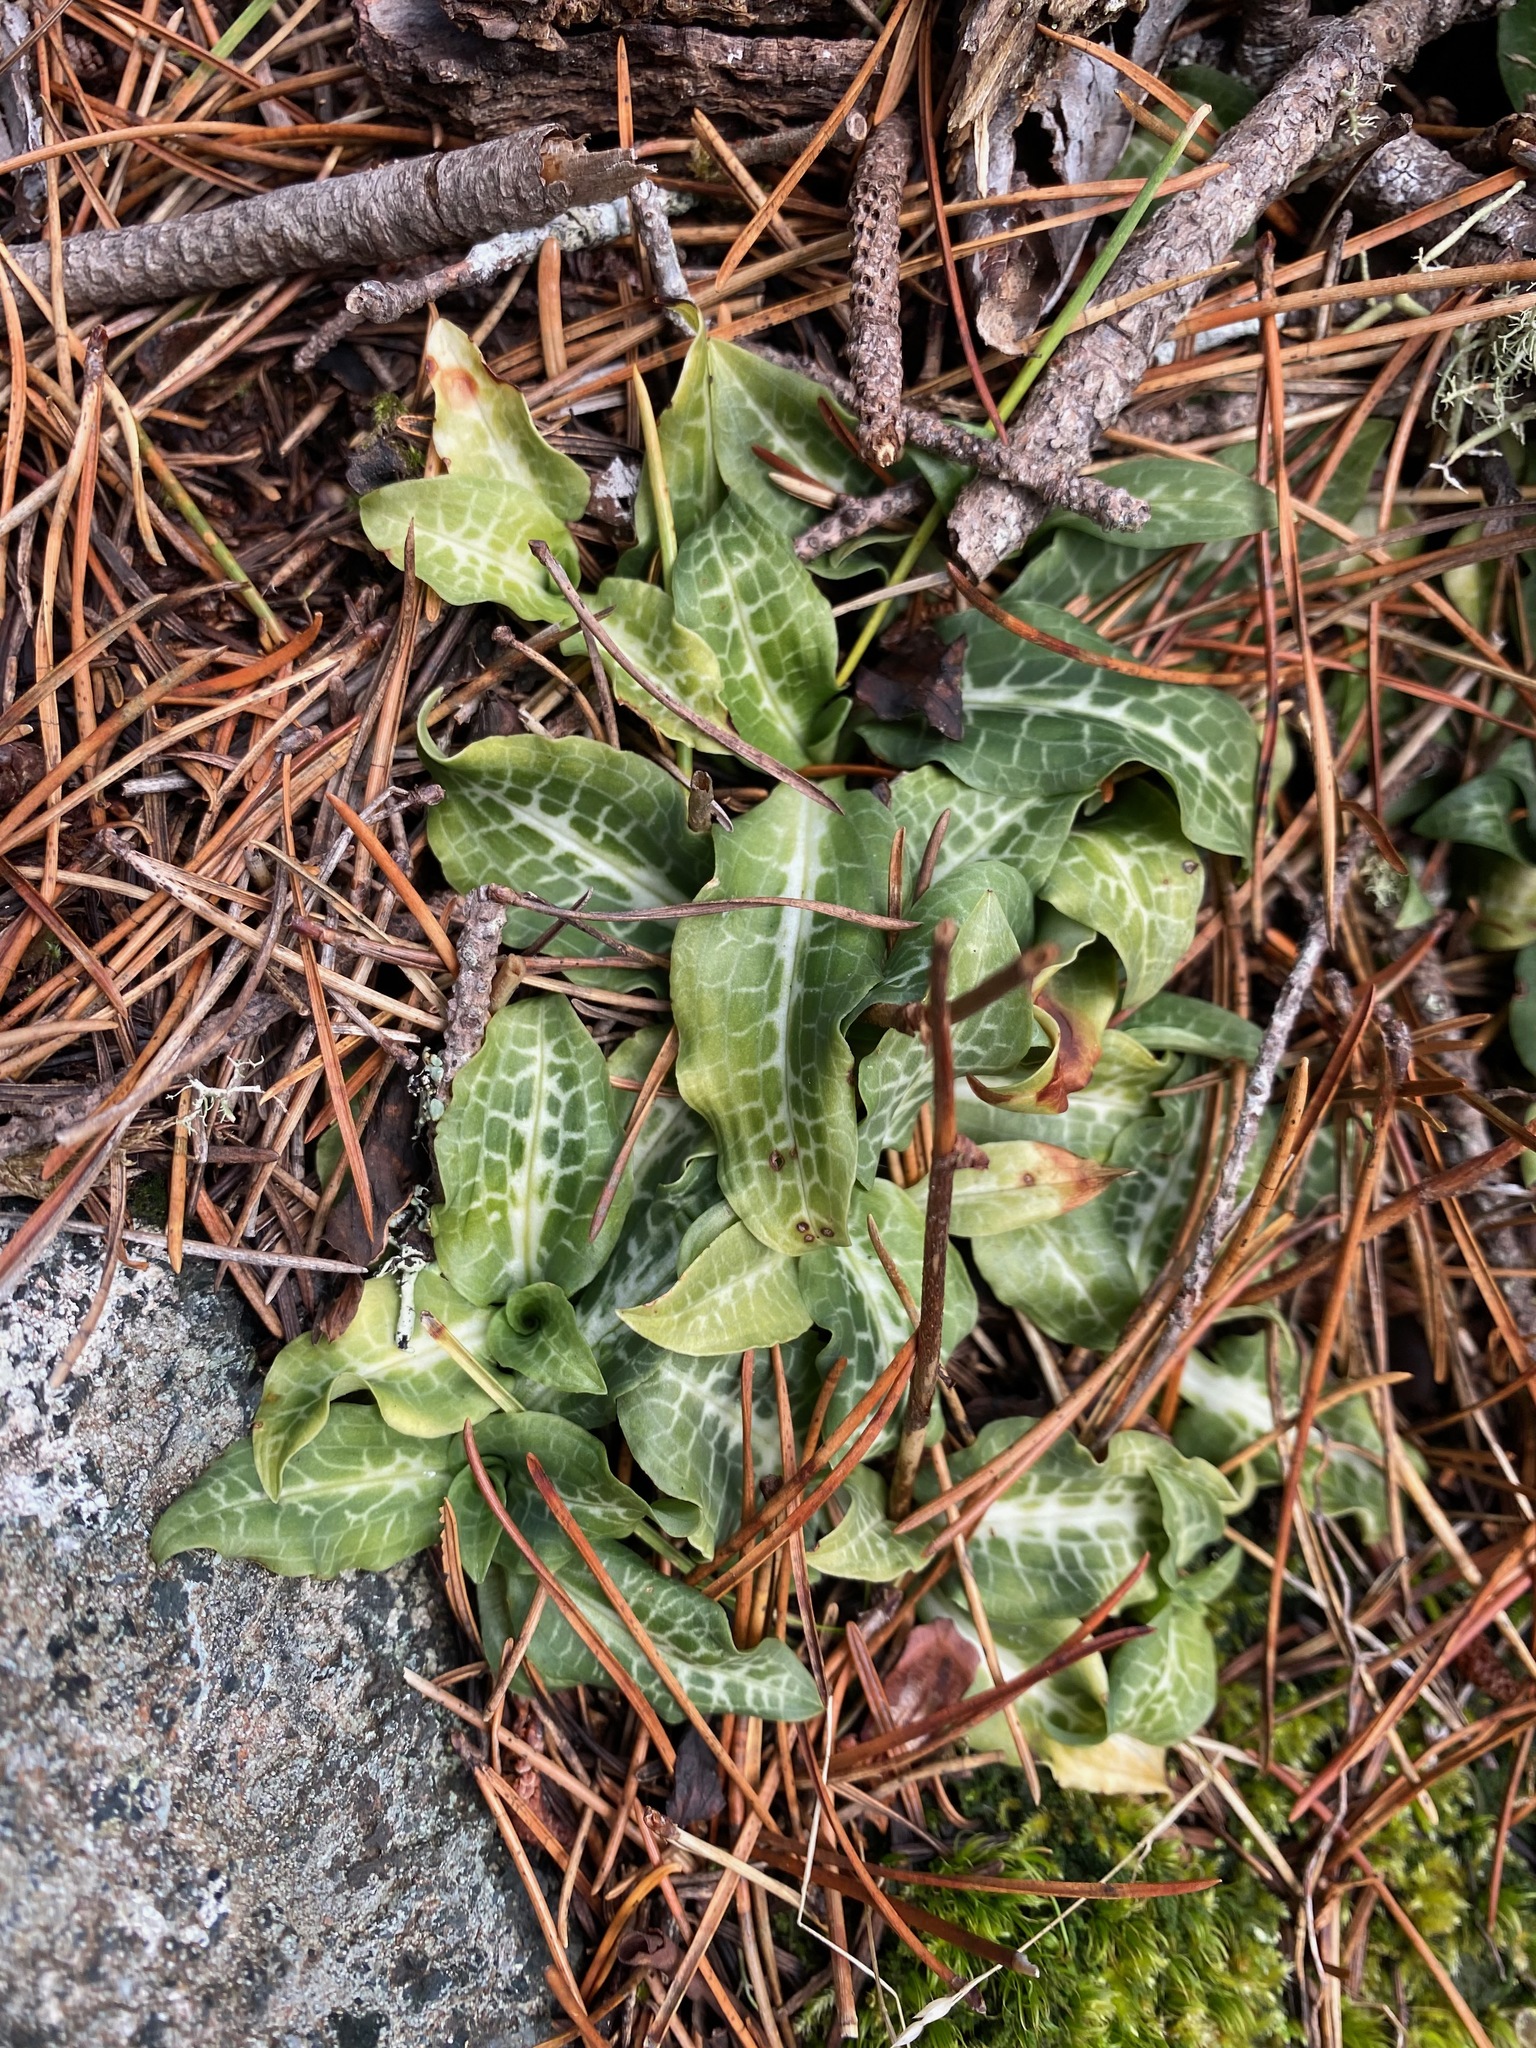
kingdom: Plantae
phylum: Tracheophyta
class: Liliopsida
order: Asparagales
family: Orchidaceae
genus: Goodyera
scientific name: Goodyera oblongifolia
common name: Giant rattlesnake-plantain
